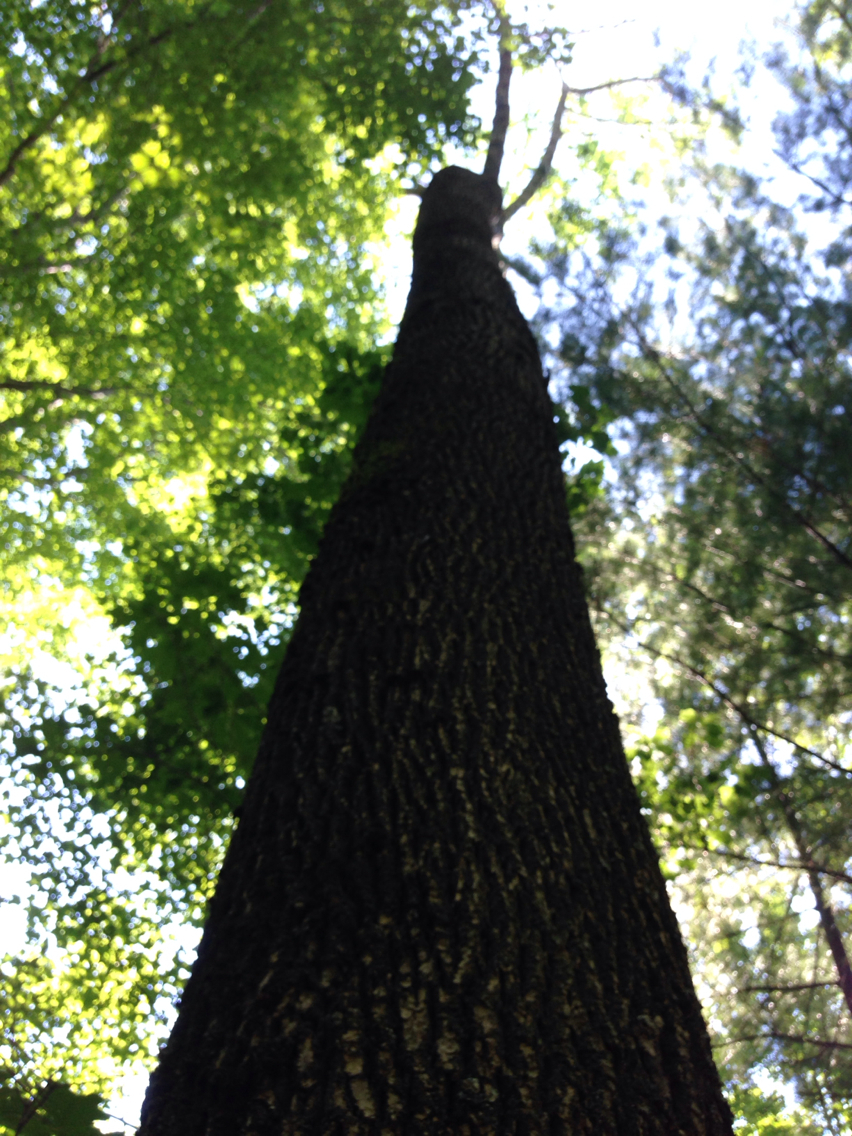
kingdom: Plantae
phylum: Tracheophyta
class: Magnoliopsida
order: Lamiales
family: Oleaceae
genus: Fraxinus
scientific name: Fraxinus americana
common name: White ash
